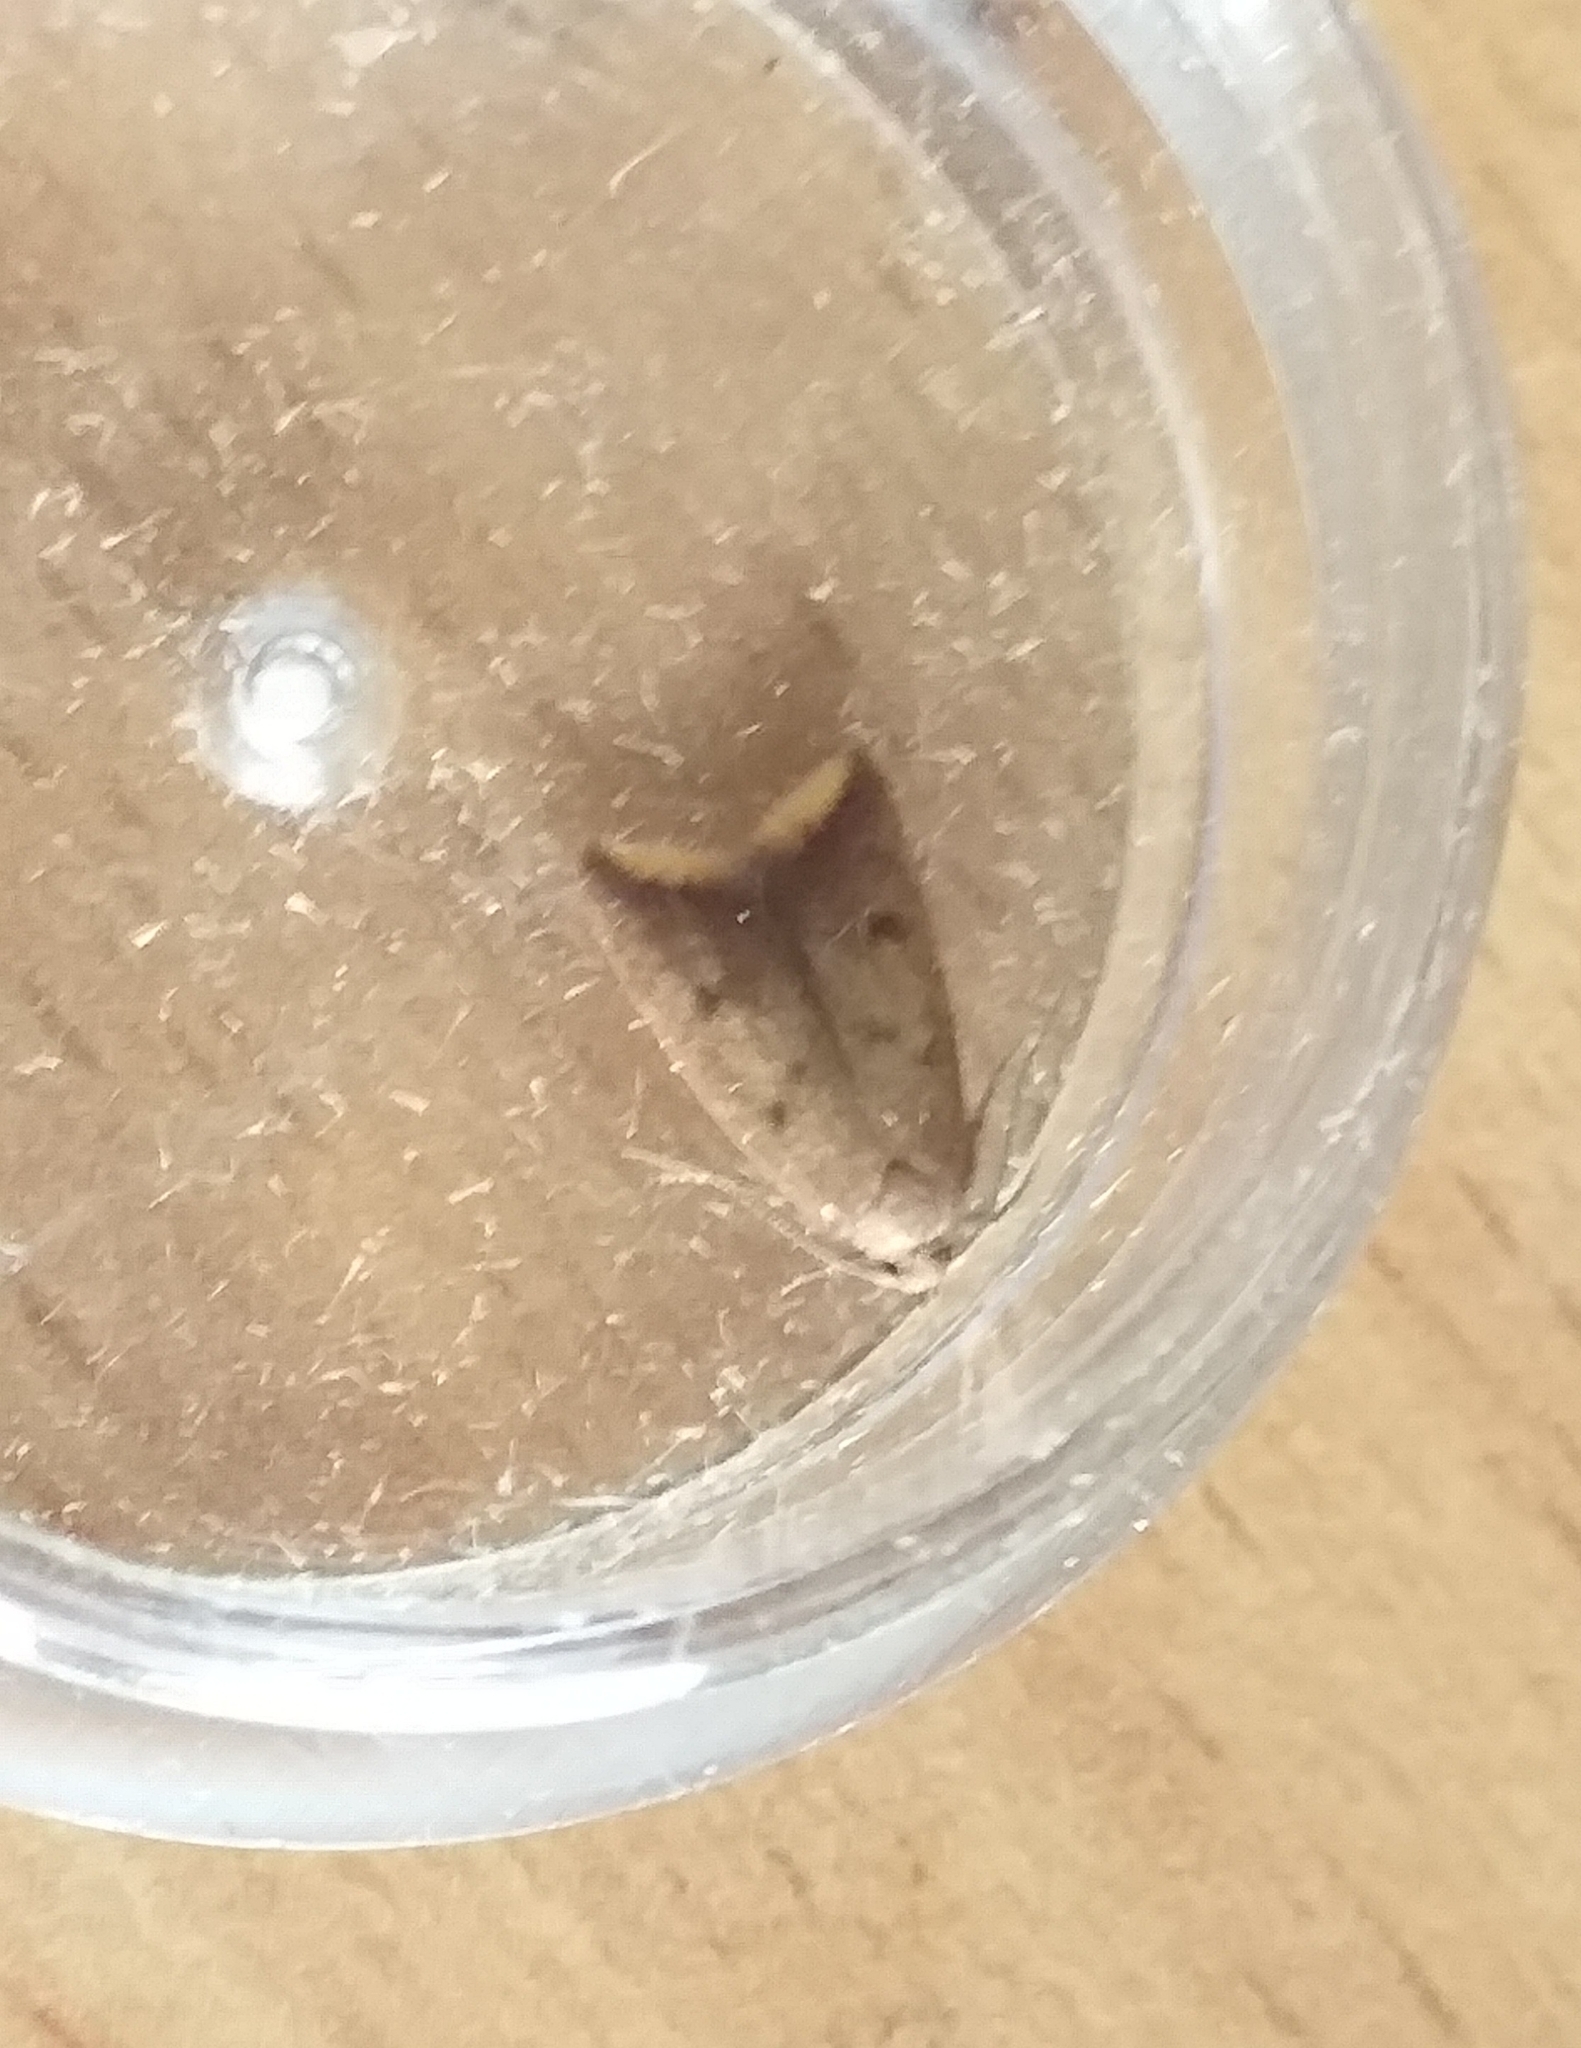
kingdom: Animalia
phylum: Arthropoda
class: Insecta
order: Lepidoptera
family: Oecophoridae
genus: Tachystola
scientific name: Tachystola acroxantha
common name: Ruddy streak
